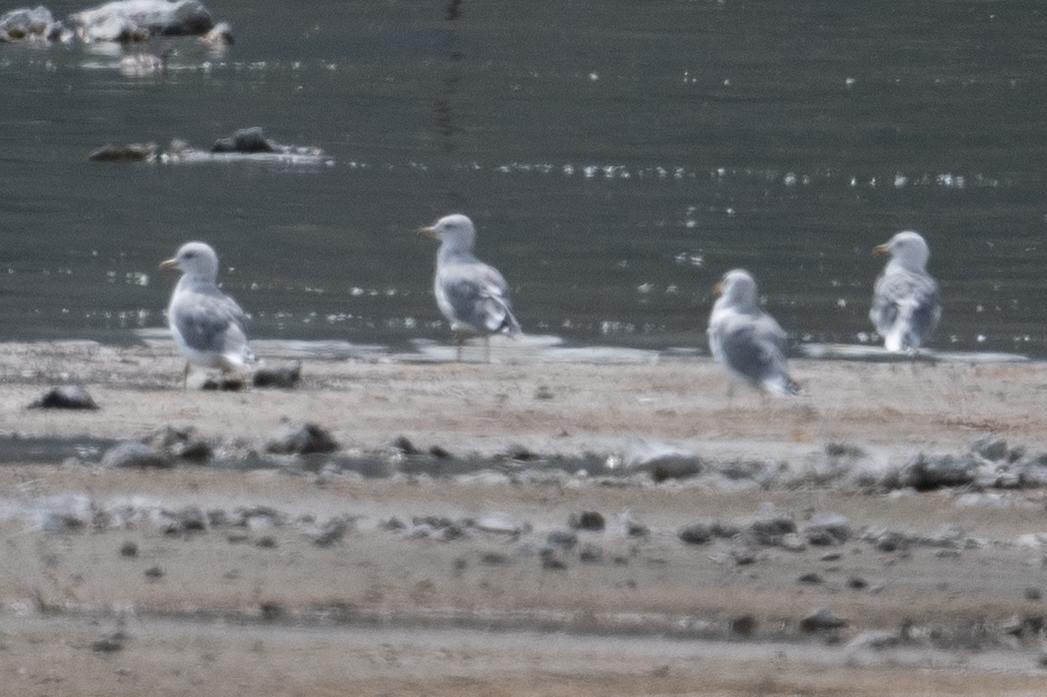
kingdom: Animalia
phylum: Chordata
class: Aves
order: Charadriiformes
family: Laridae
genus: Larus
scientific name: Larus californicus
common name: California gull
